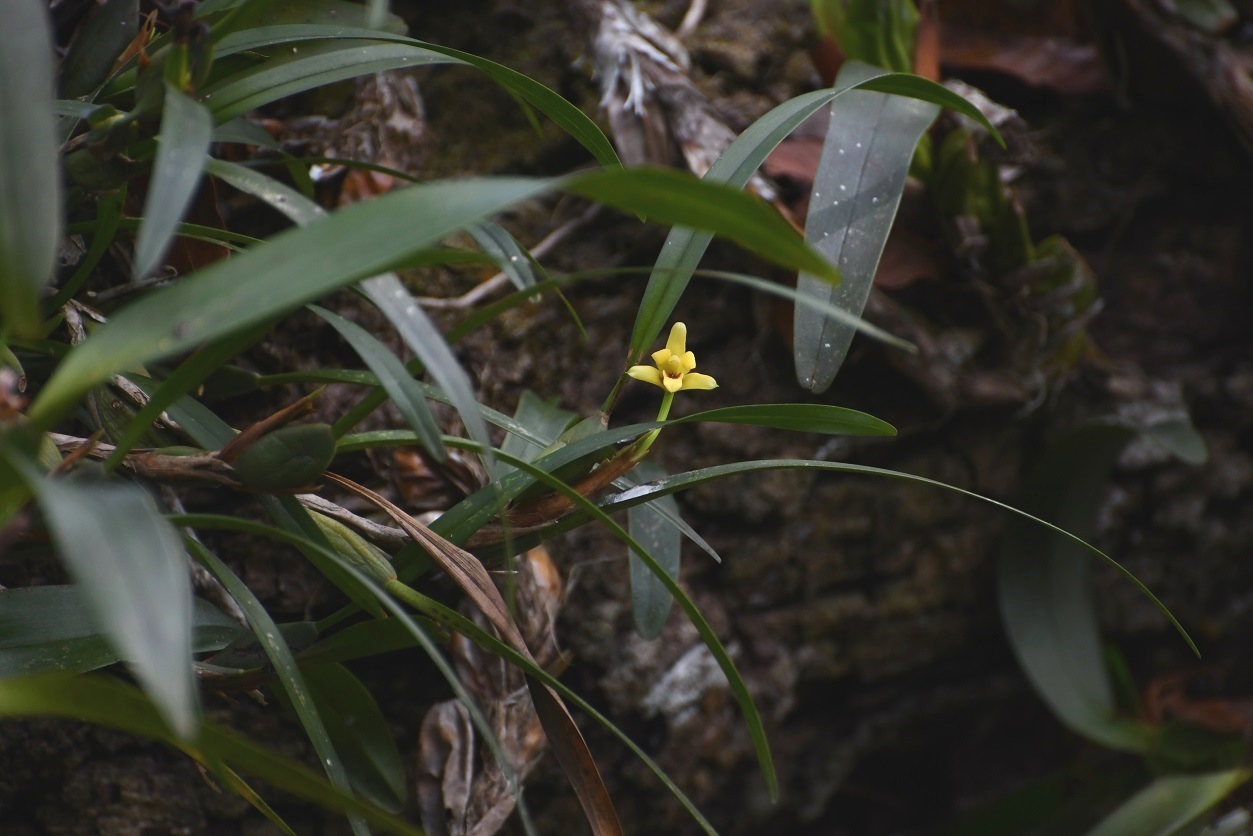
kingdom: Plantae
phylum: Tracheophyta
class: Liliopsida
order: Asparagales
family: Orchidaceae
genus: Maxillaria
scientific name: Maxillaria variabilis
